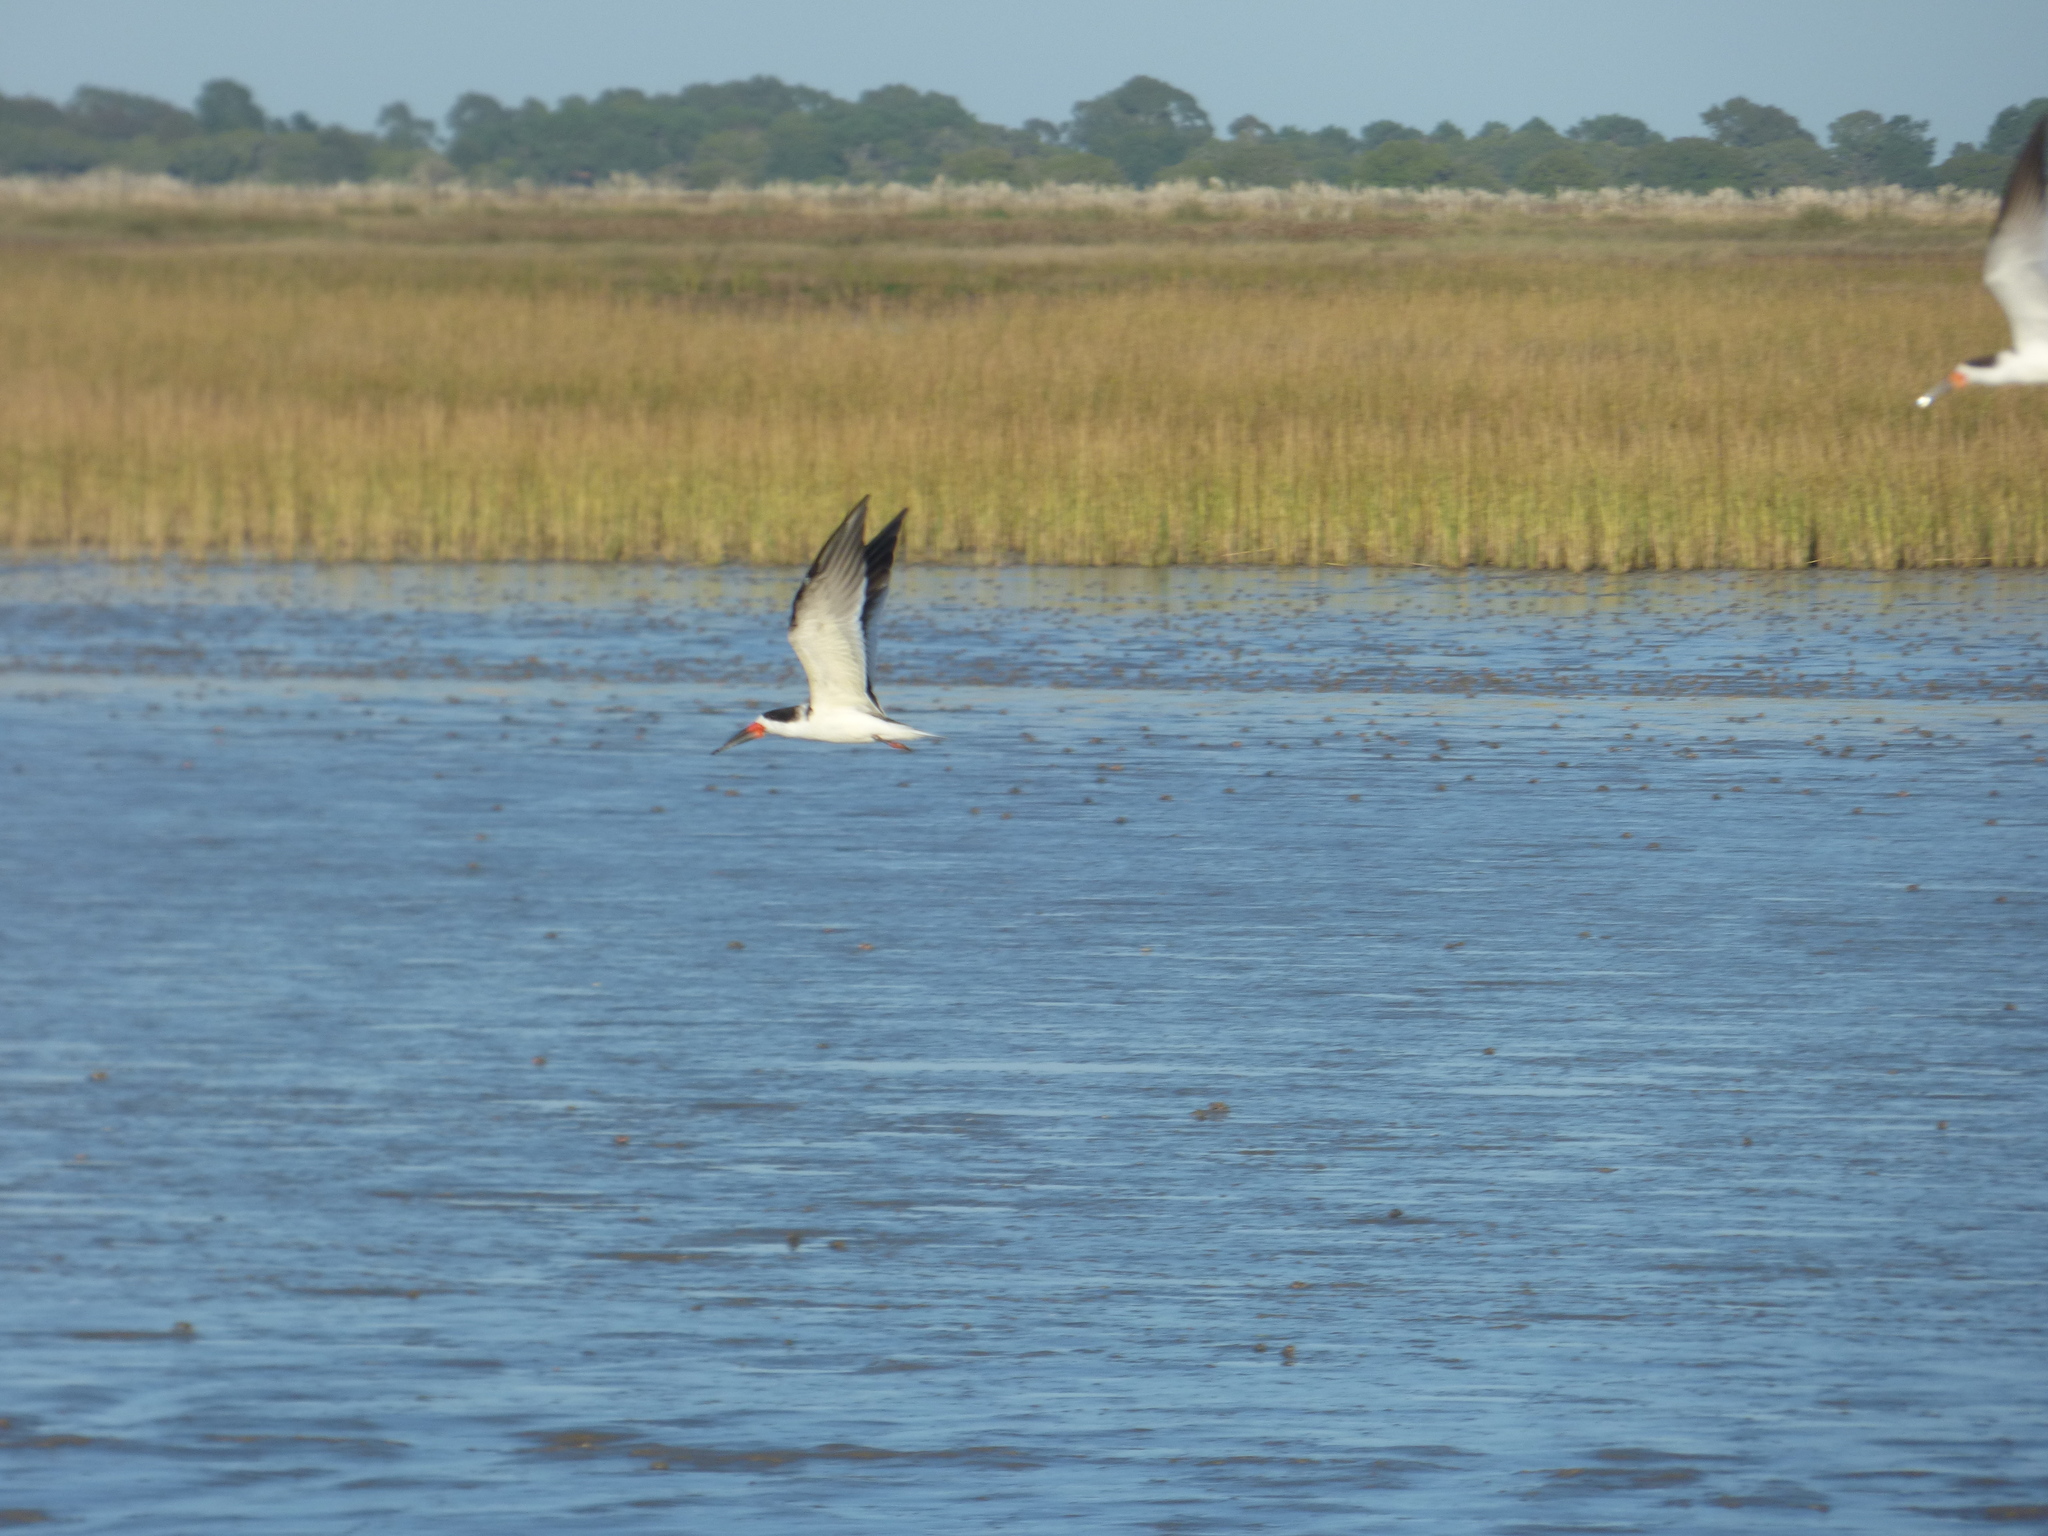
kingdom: Animalia
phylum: Chordata
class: Aves
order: Charadriiformes
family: Laridae
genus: Rynchops
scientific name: Rynchops niger
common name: Black skimmer
